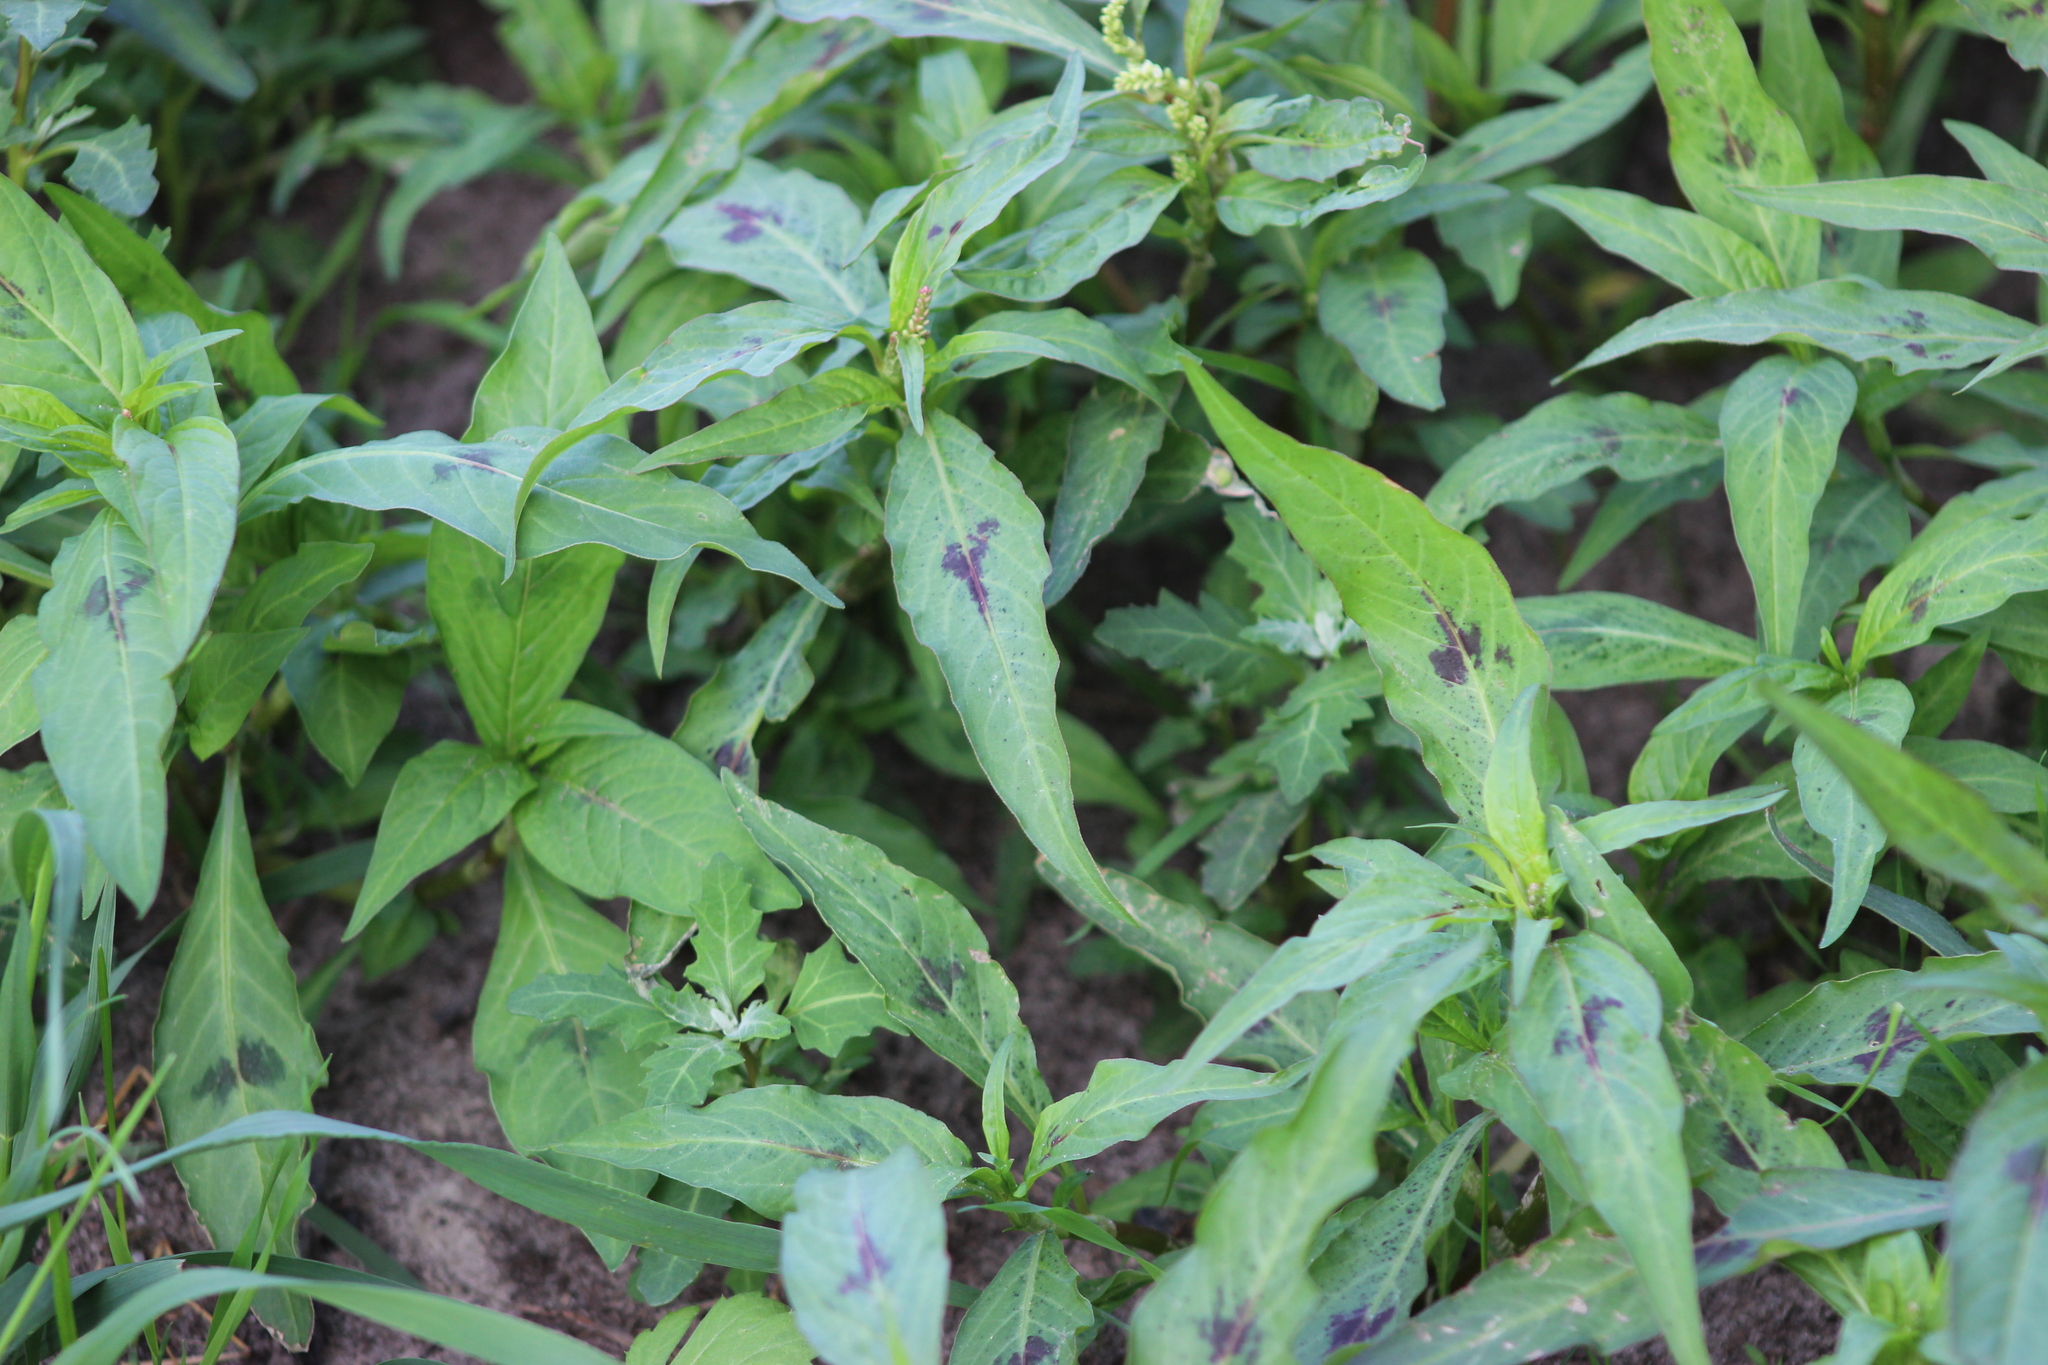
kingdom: Plantae
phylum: Tracheophyta
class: Magnoliopsida
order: Caryophyllales
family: Polygonaceae
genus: Persicaria
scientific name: Persicaria maculosa
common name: Redshank
